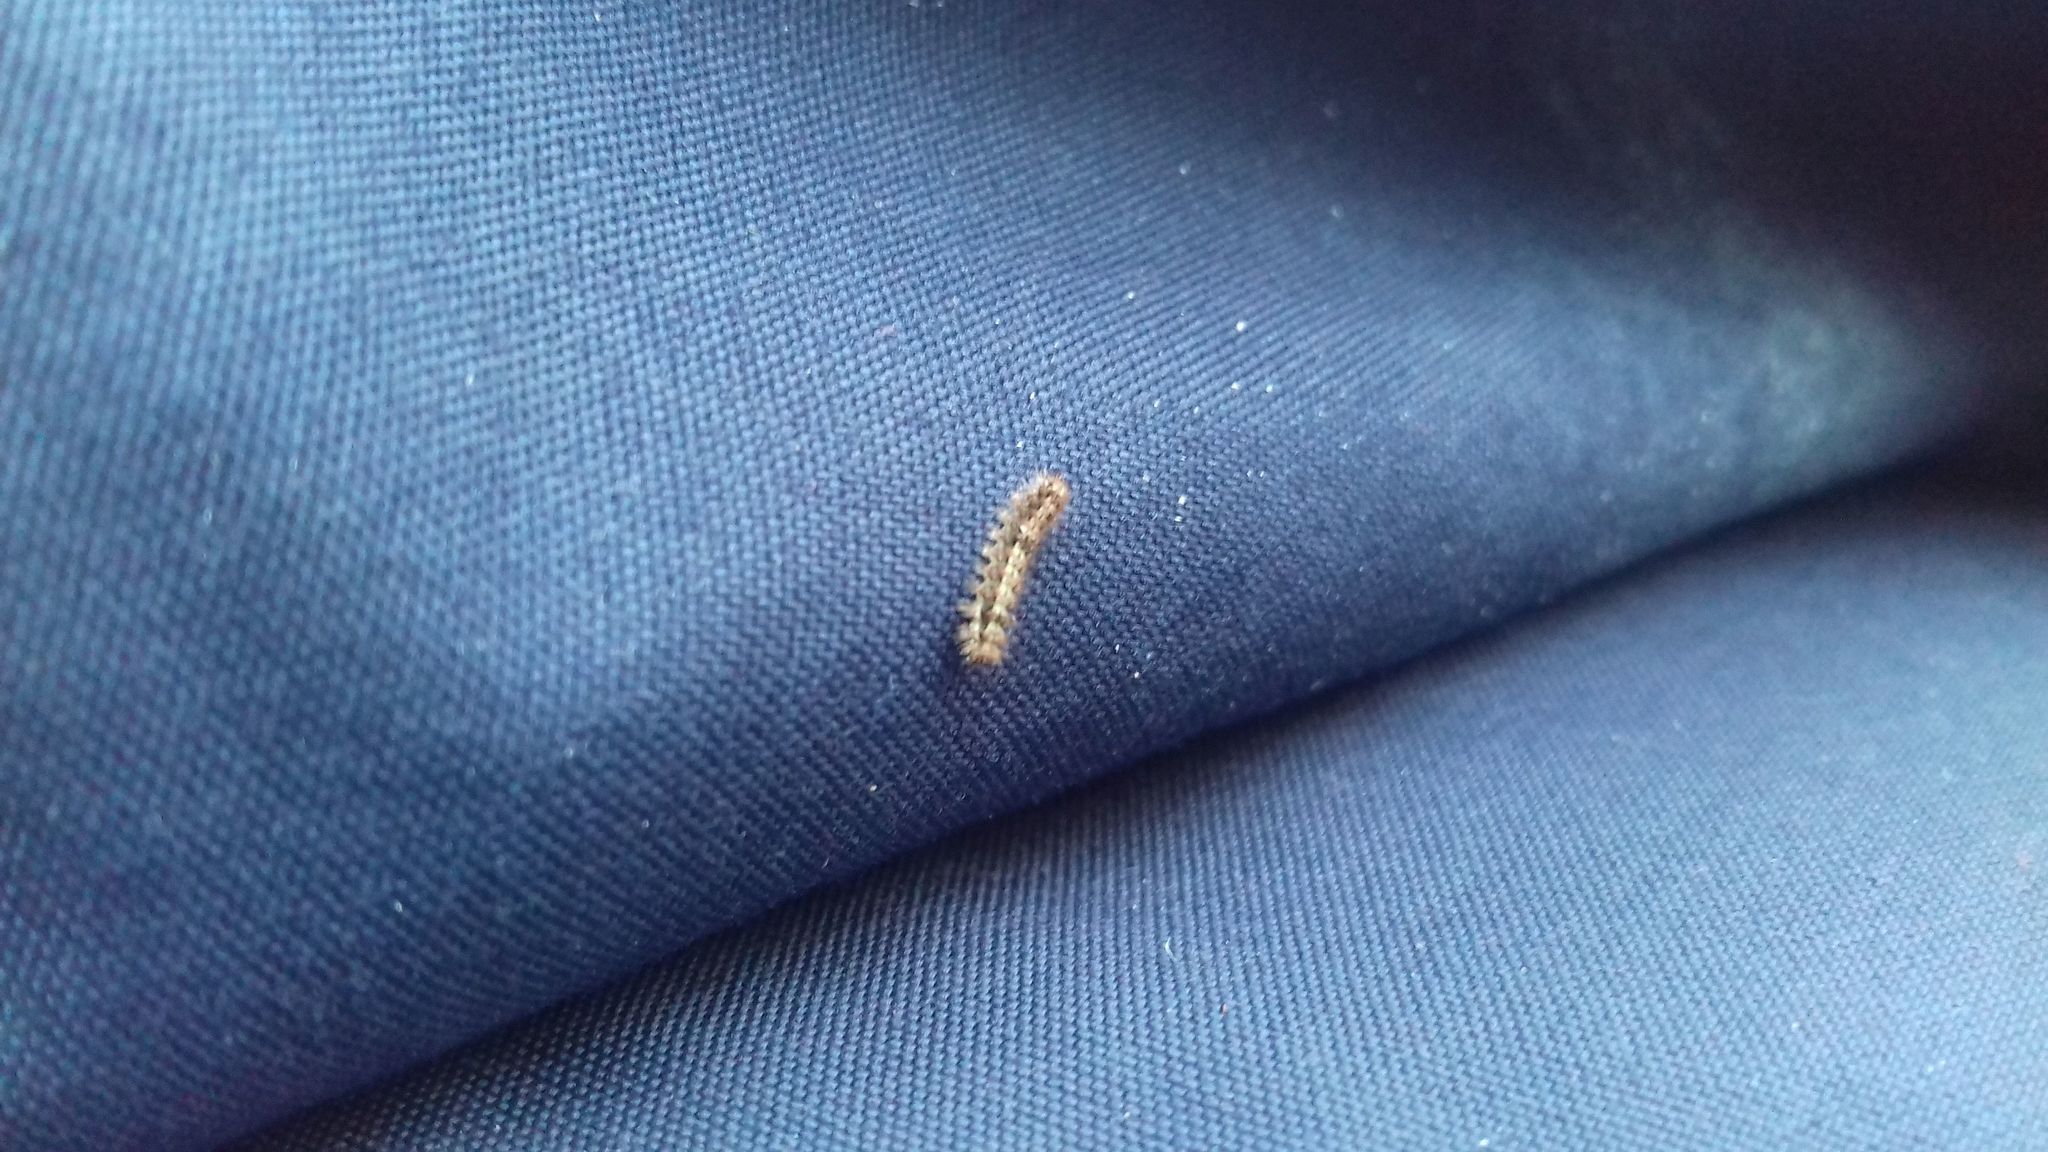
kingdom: Animalia
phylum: Arthropoda
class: Insecta
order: Lepidoptera
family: Erebidae
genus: Katha
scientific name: Katha depressa
